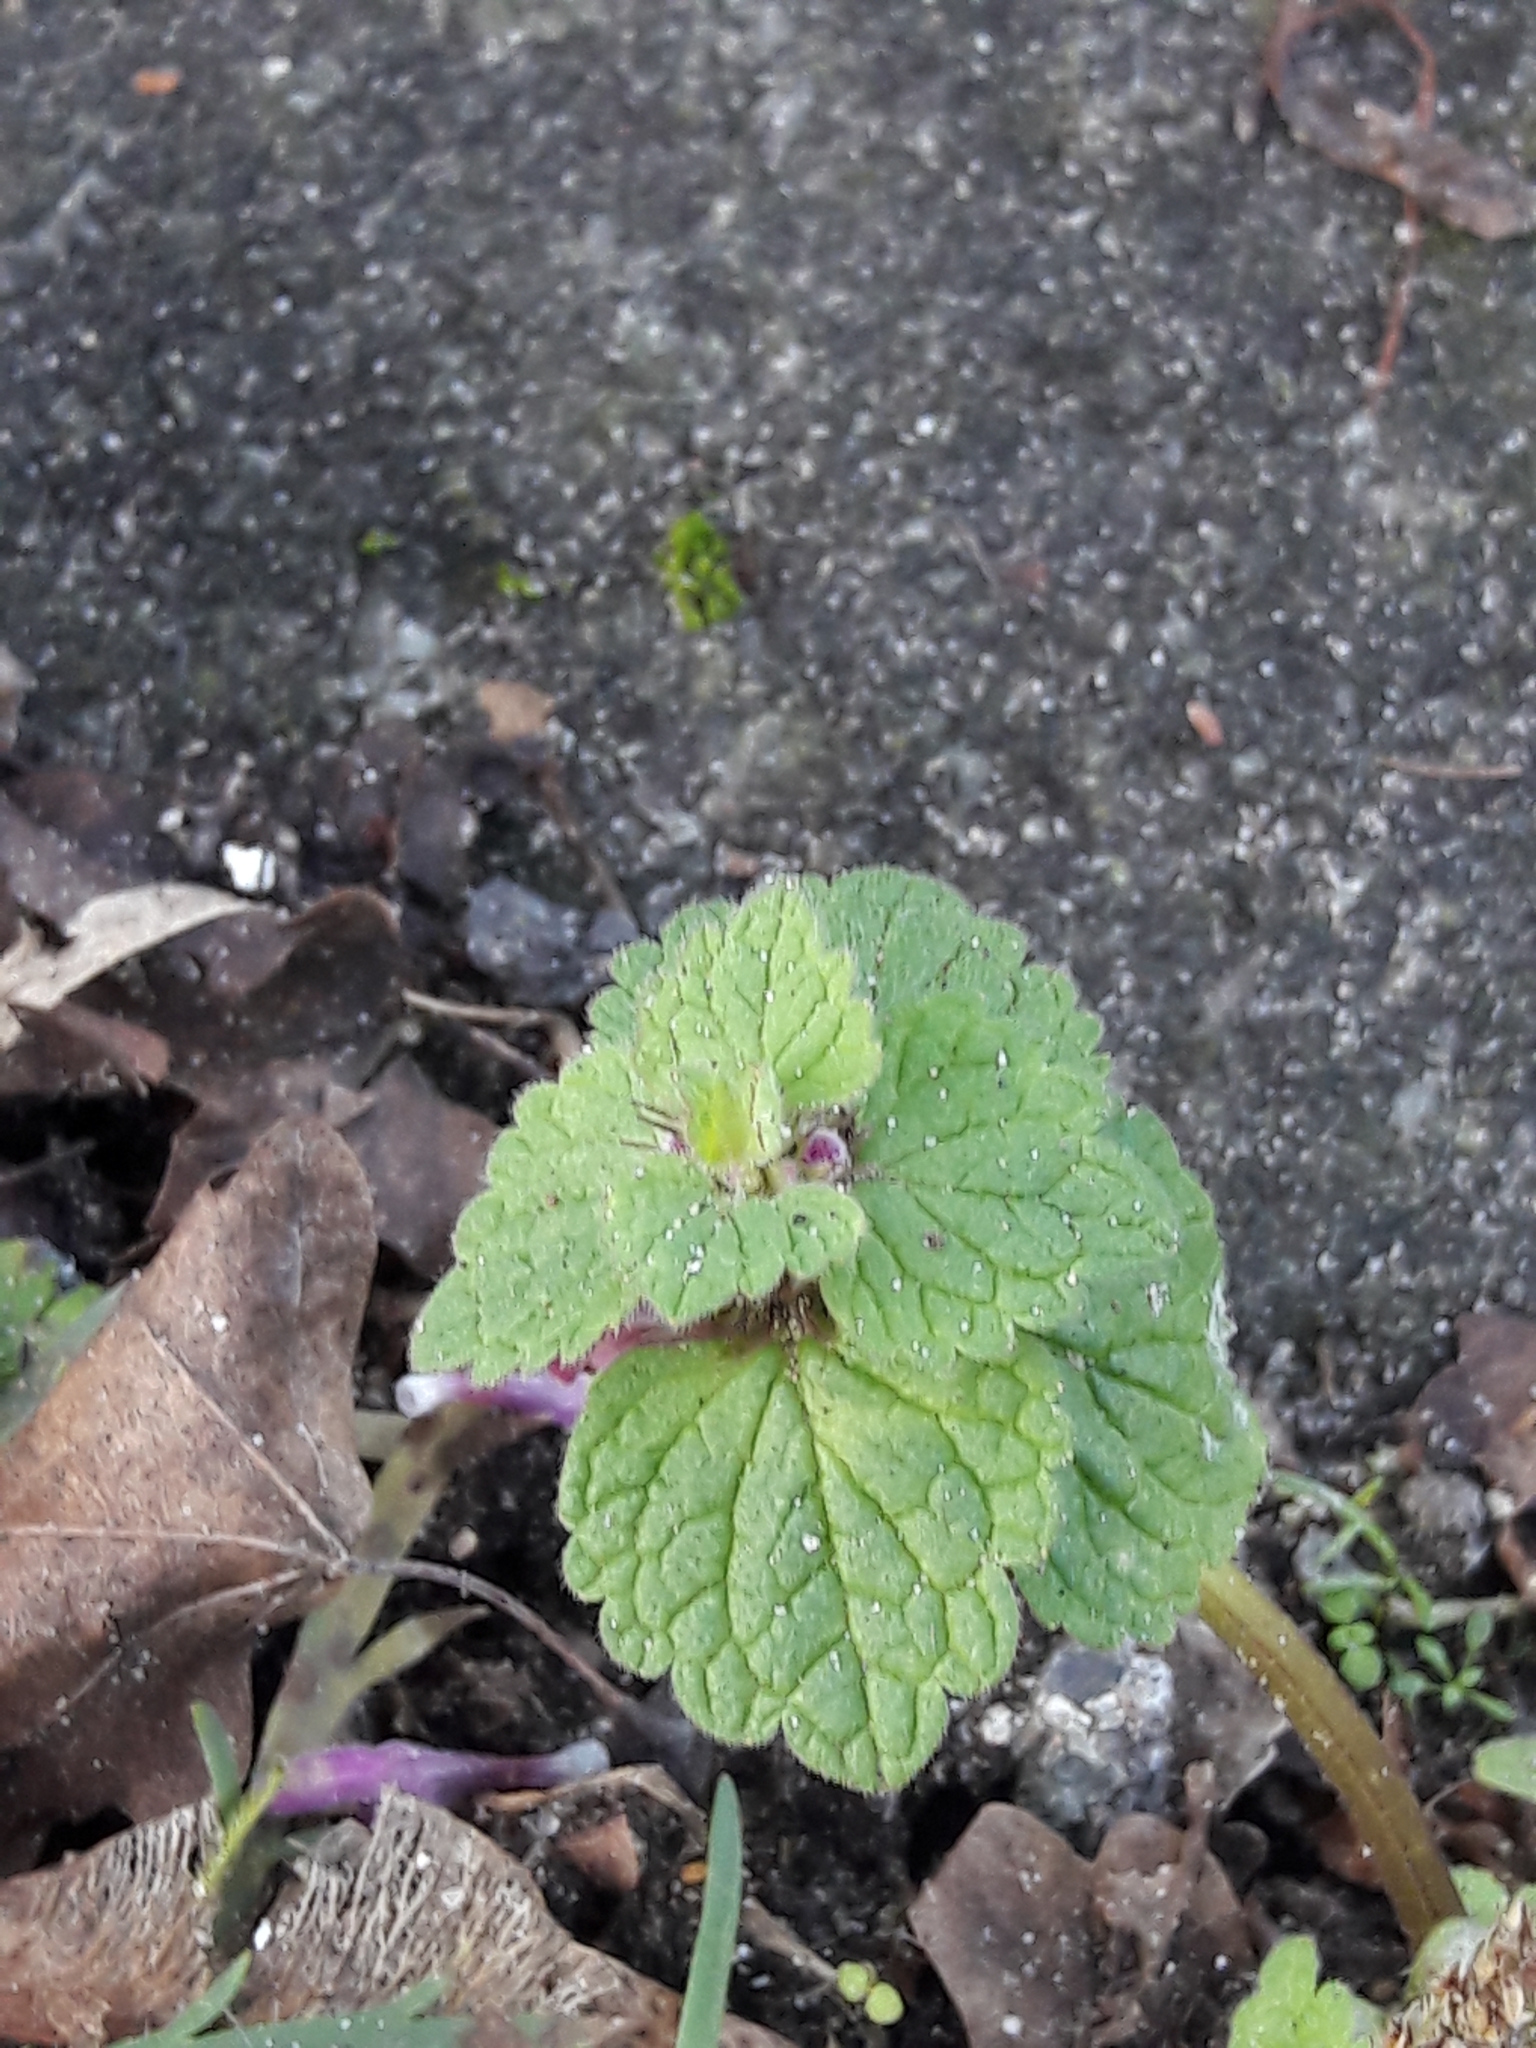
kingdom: Plantae
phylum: Tracheophyta
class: Magnoliopsida
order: Lamiales
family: Lamiaceae
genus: Lamium
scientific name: Lamium purpureum
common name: Red dead-nettle
